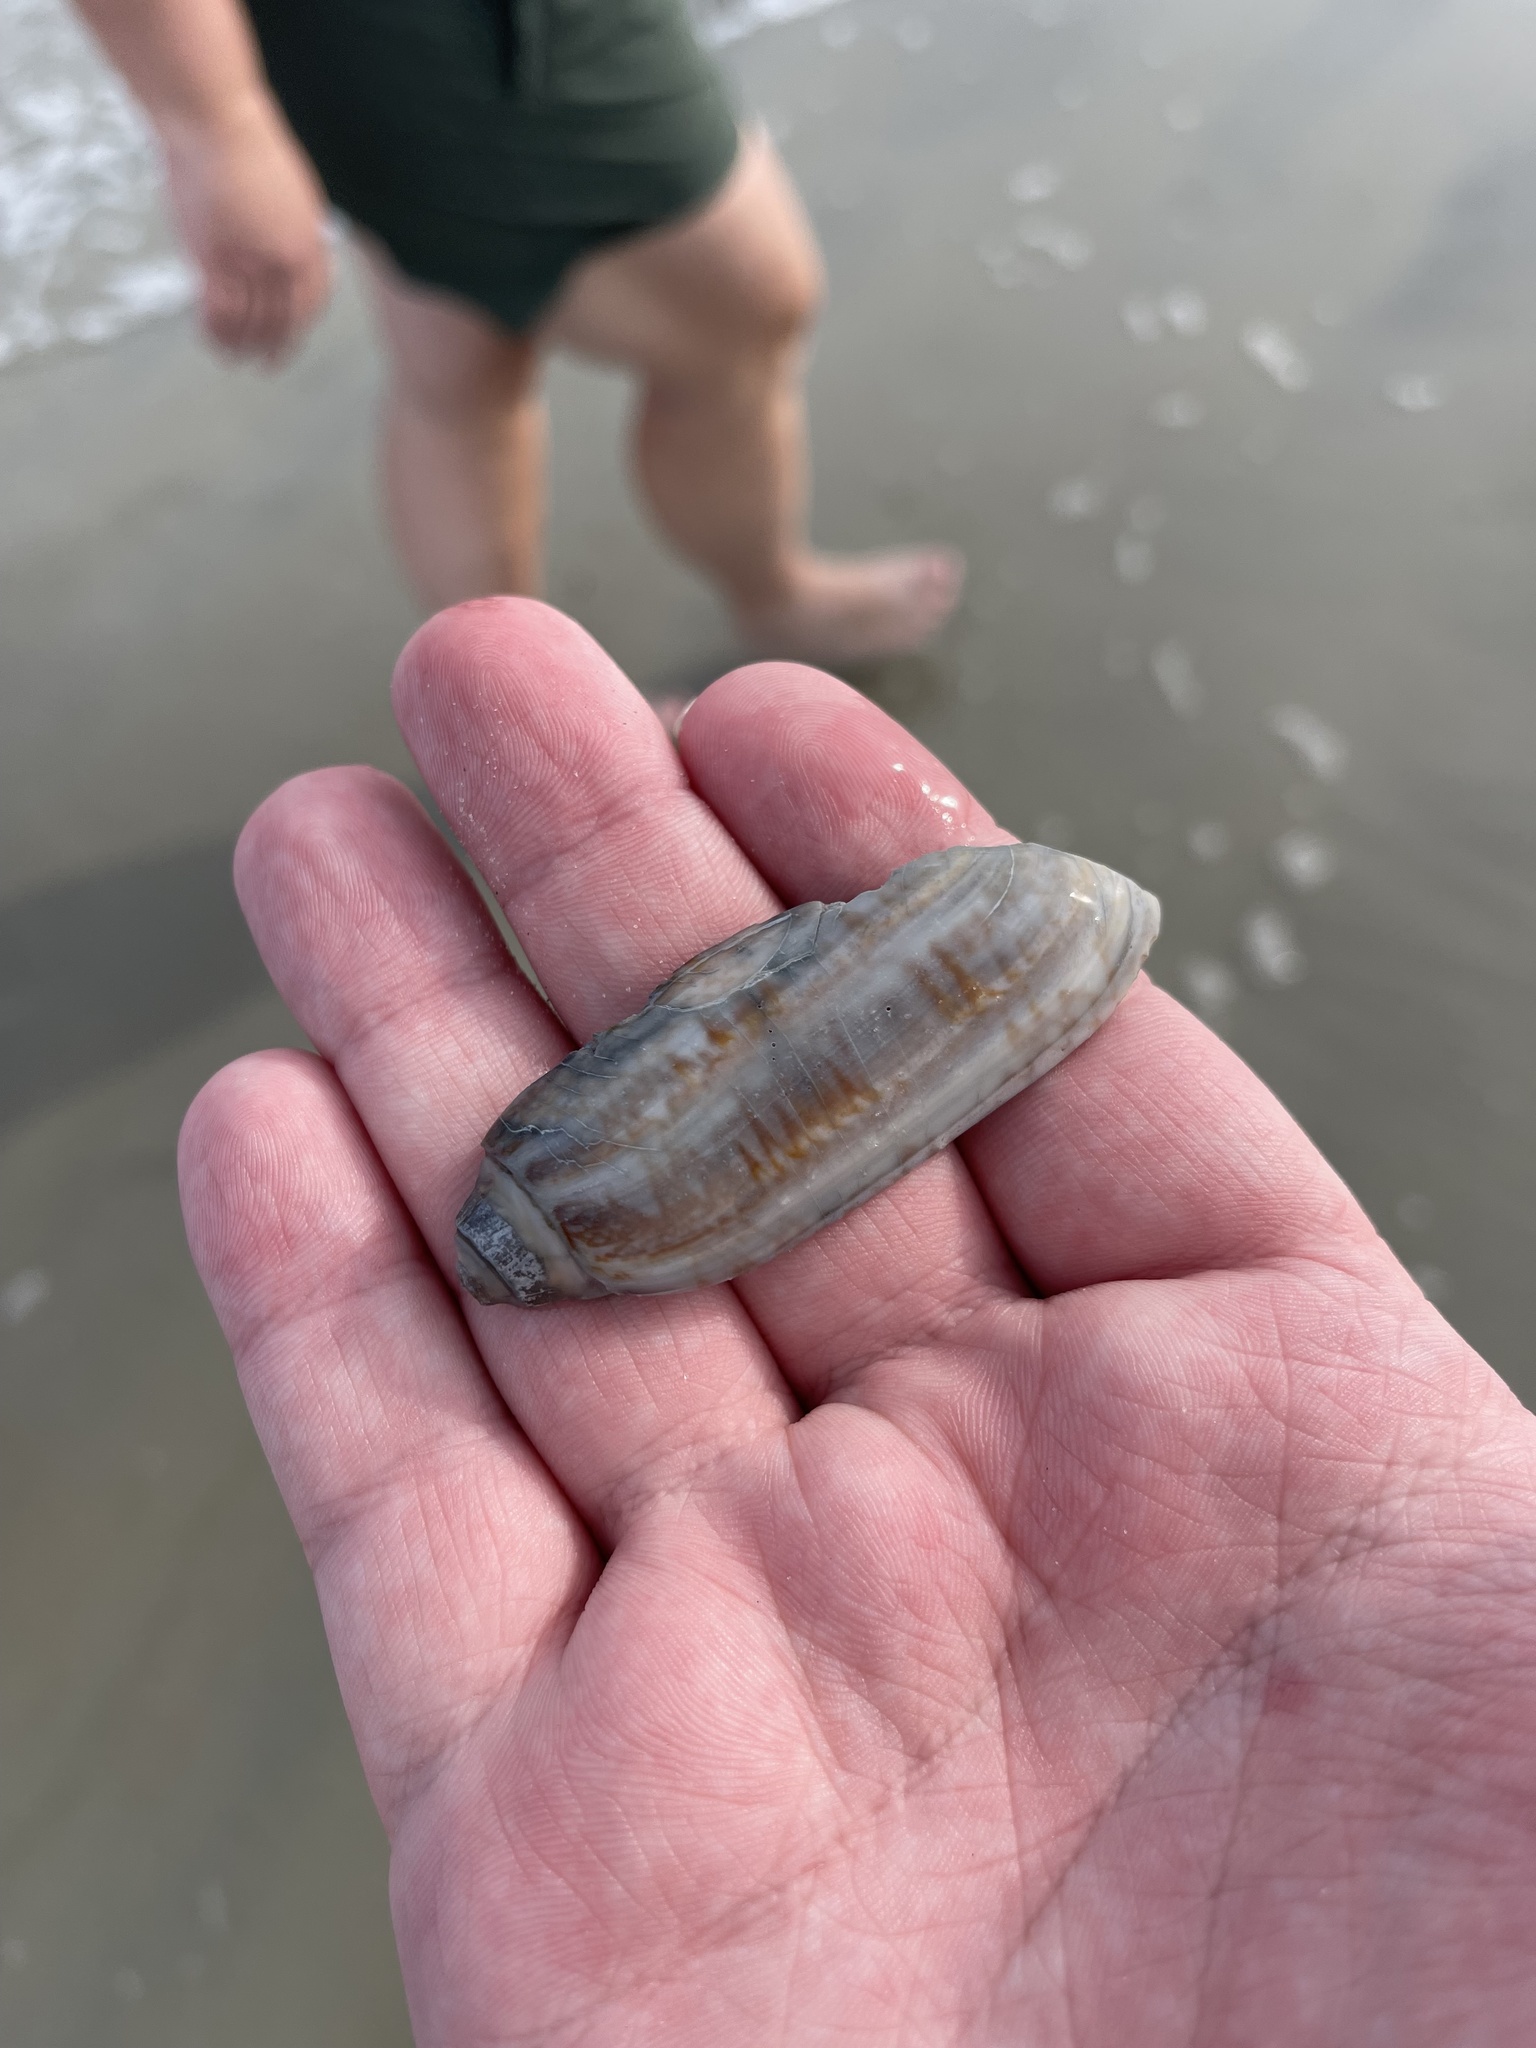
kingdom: Animalia
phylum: Mollusca
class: Gastropoda
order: Neogastropoda
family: Olividae
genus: Oliva
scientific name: Oliva sayana
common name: Lettered olive
